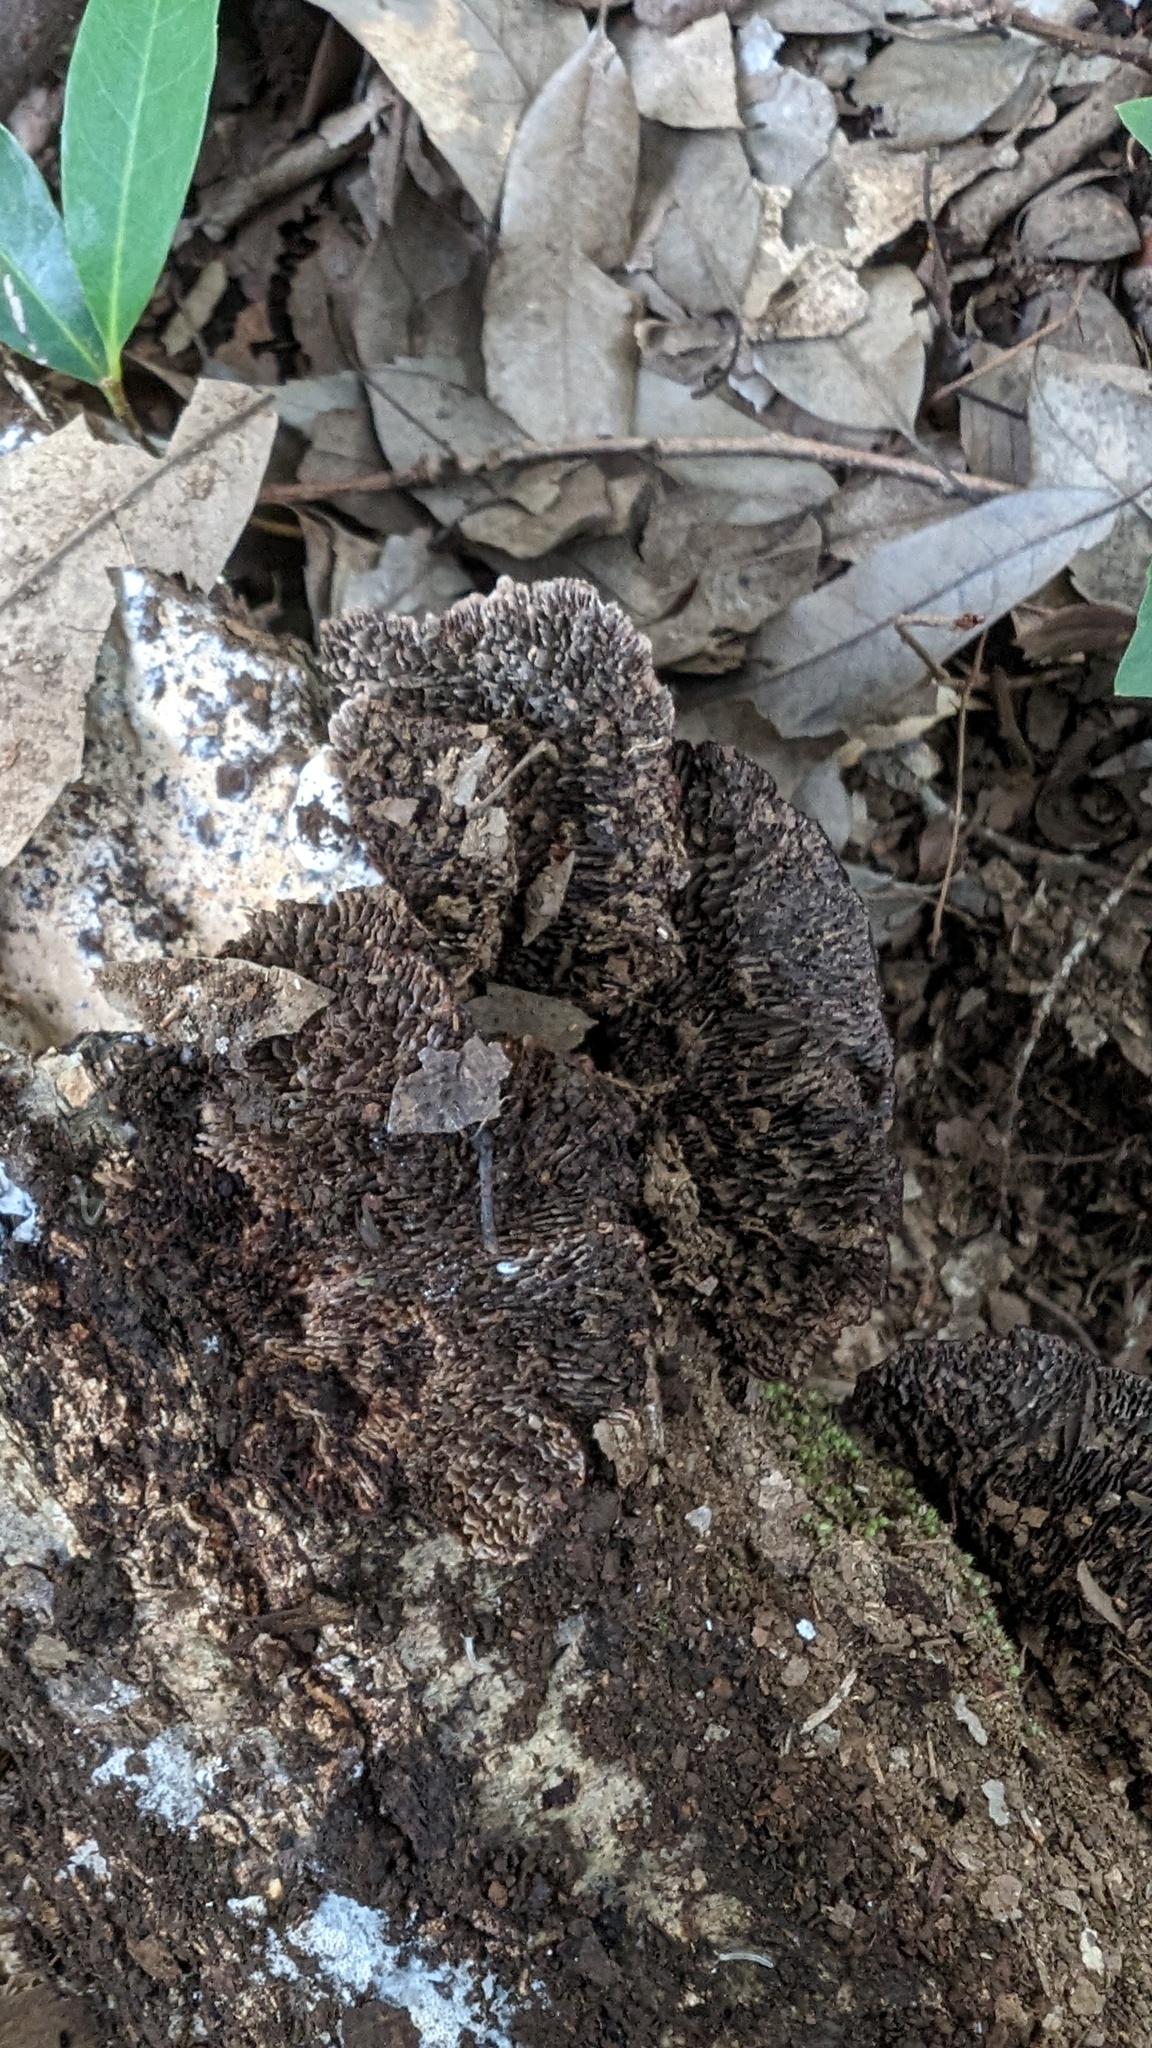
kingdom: Fungi
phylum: Basidiomycota
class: Agaricomycetes
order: Polyporales
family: Polyporaceae
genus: Daedaleopsis
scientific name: Daedaleopsis tricolor
